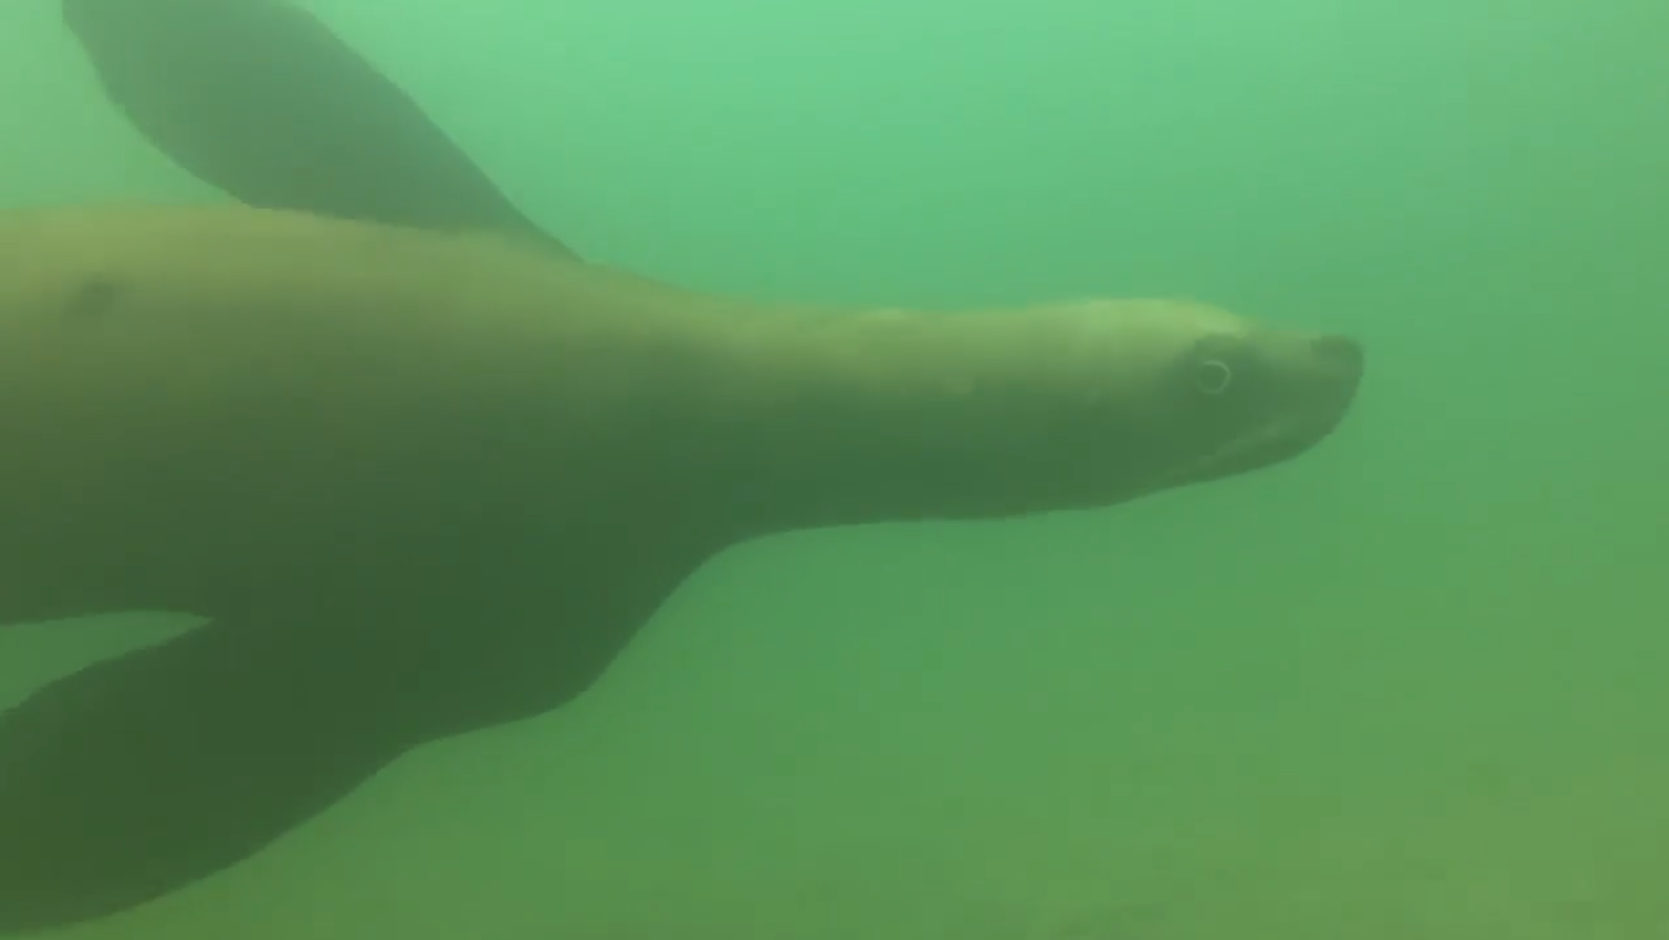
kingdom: Animalia
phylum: Chordata
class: Mammalia
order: Carnivora
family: Otariidae
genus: Eumetopias
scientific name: Eumetopias jubatus
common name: Steller sea lion
